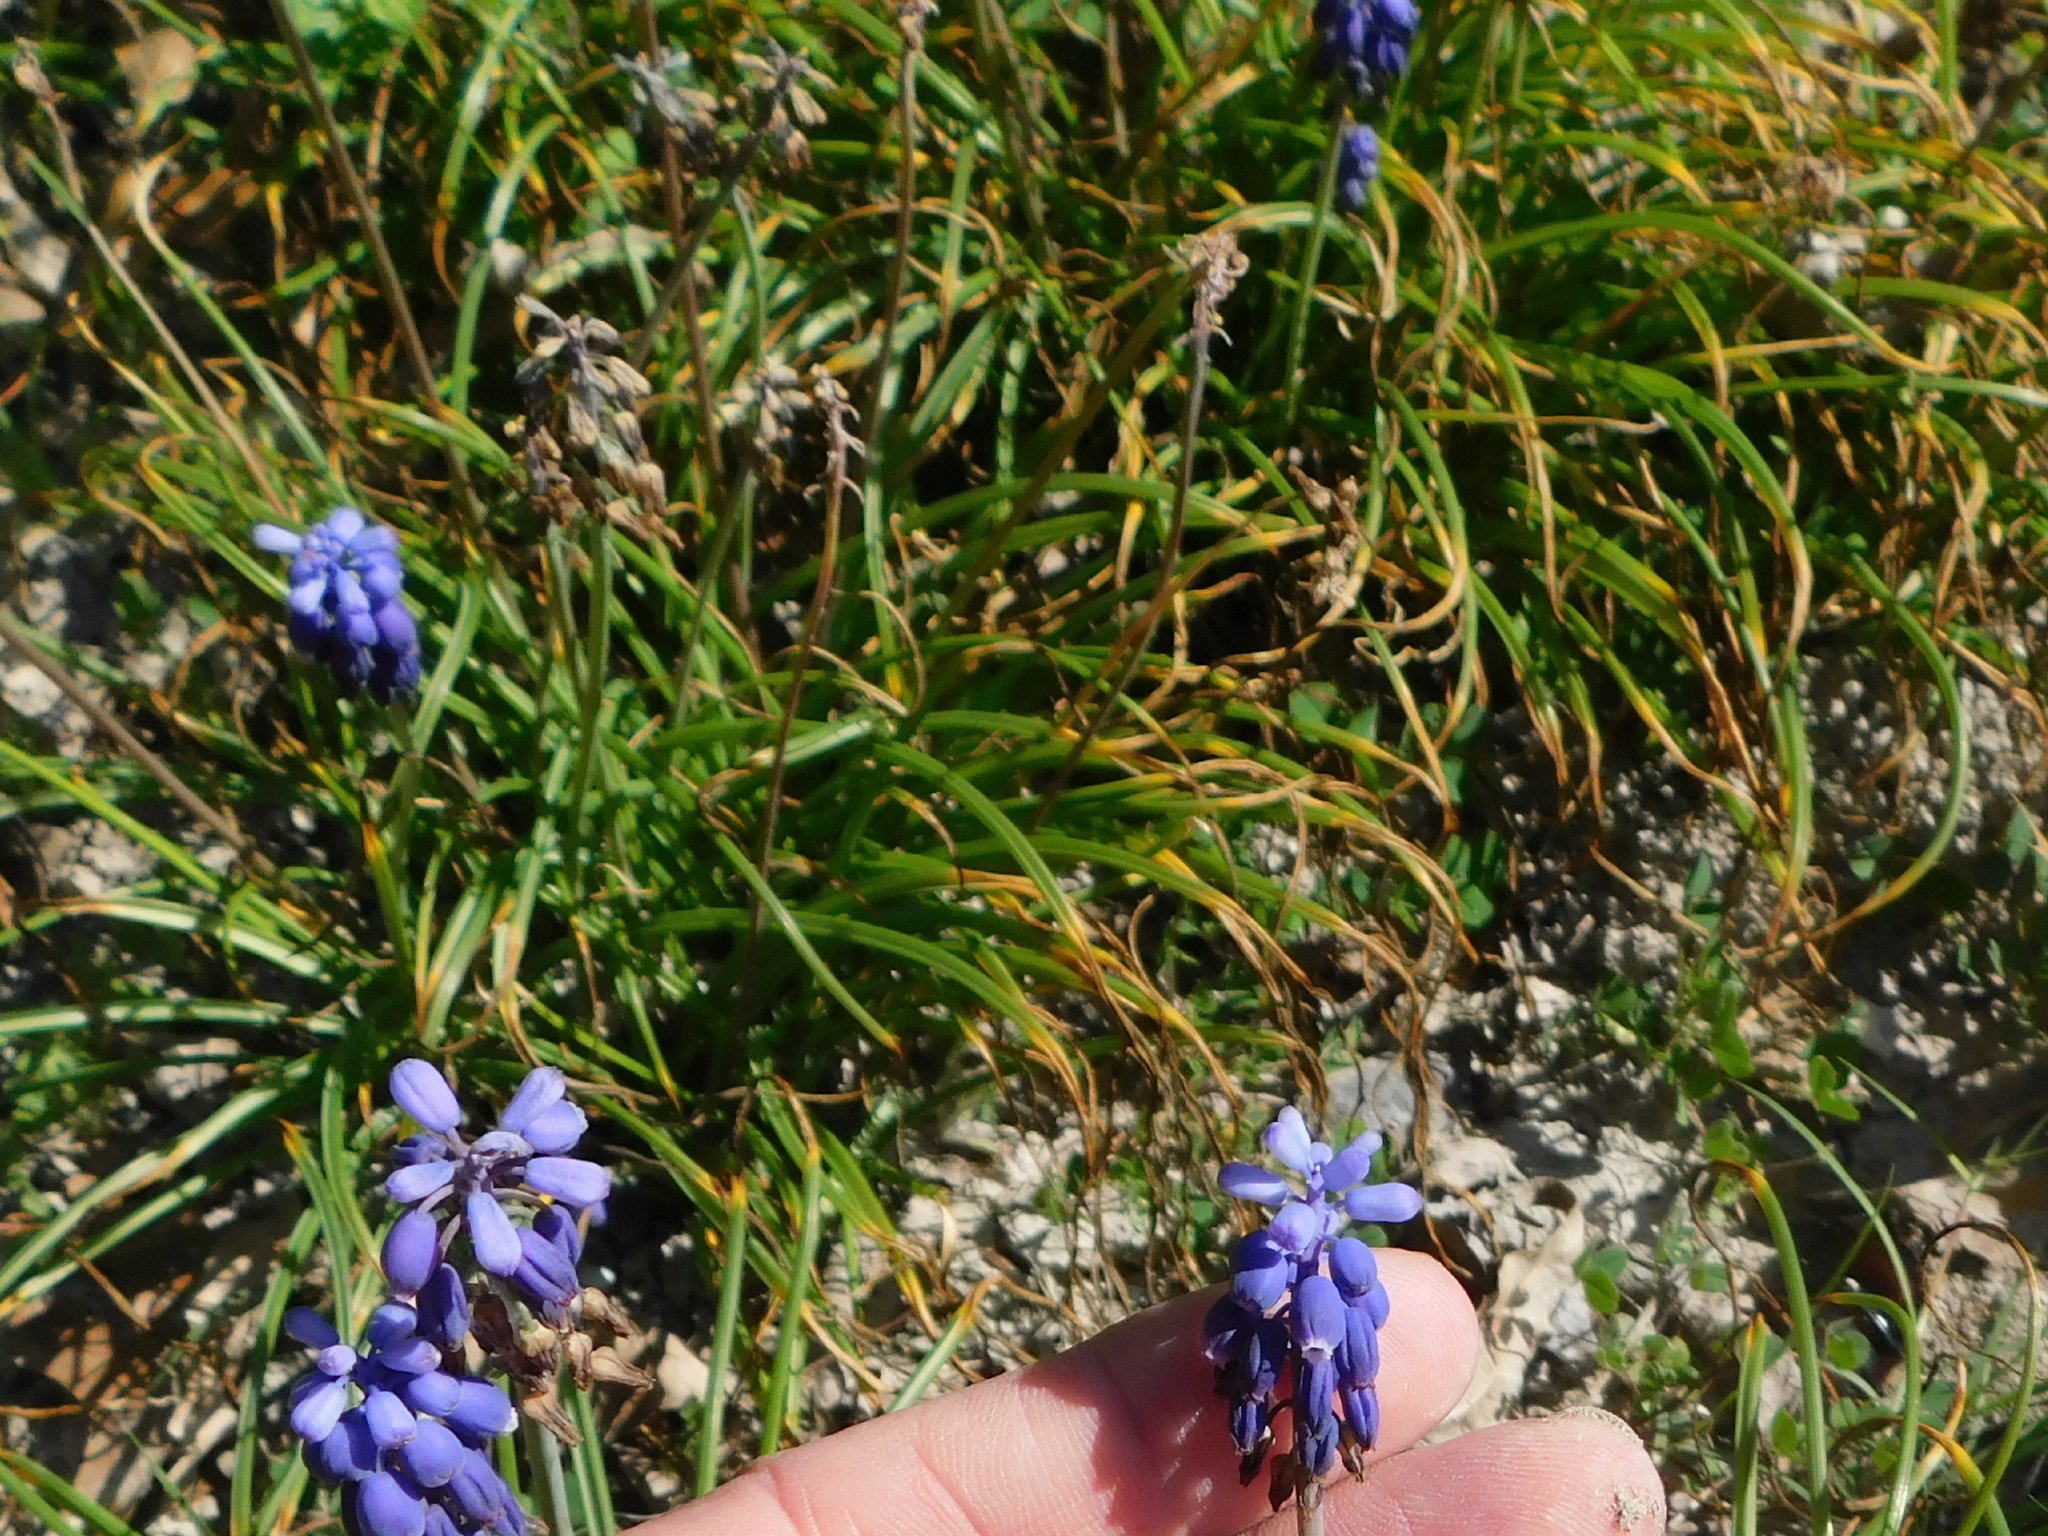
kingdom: Plantae
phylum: Tracheophyta
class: Liliopsida
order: Asparagales
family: Asparagaceae
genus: Muscari
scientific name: Muscari neglectum
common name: Grape-hyacinth
